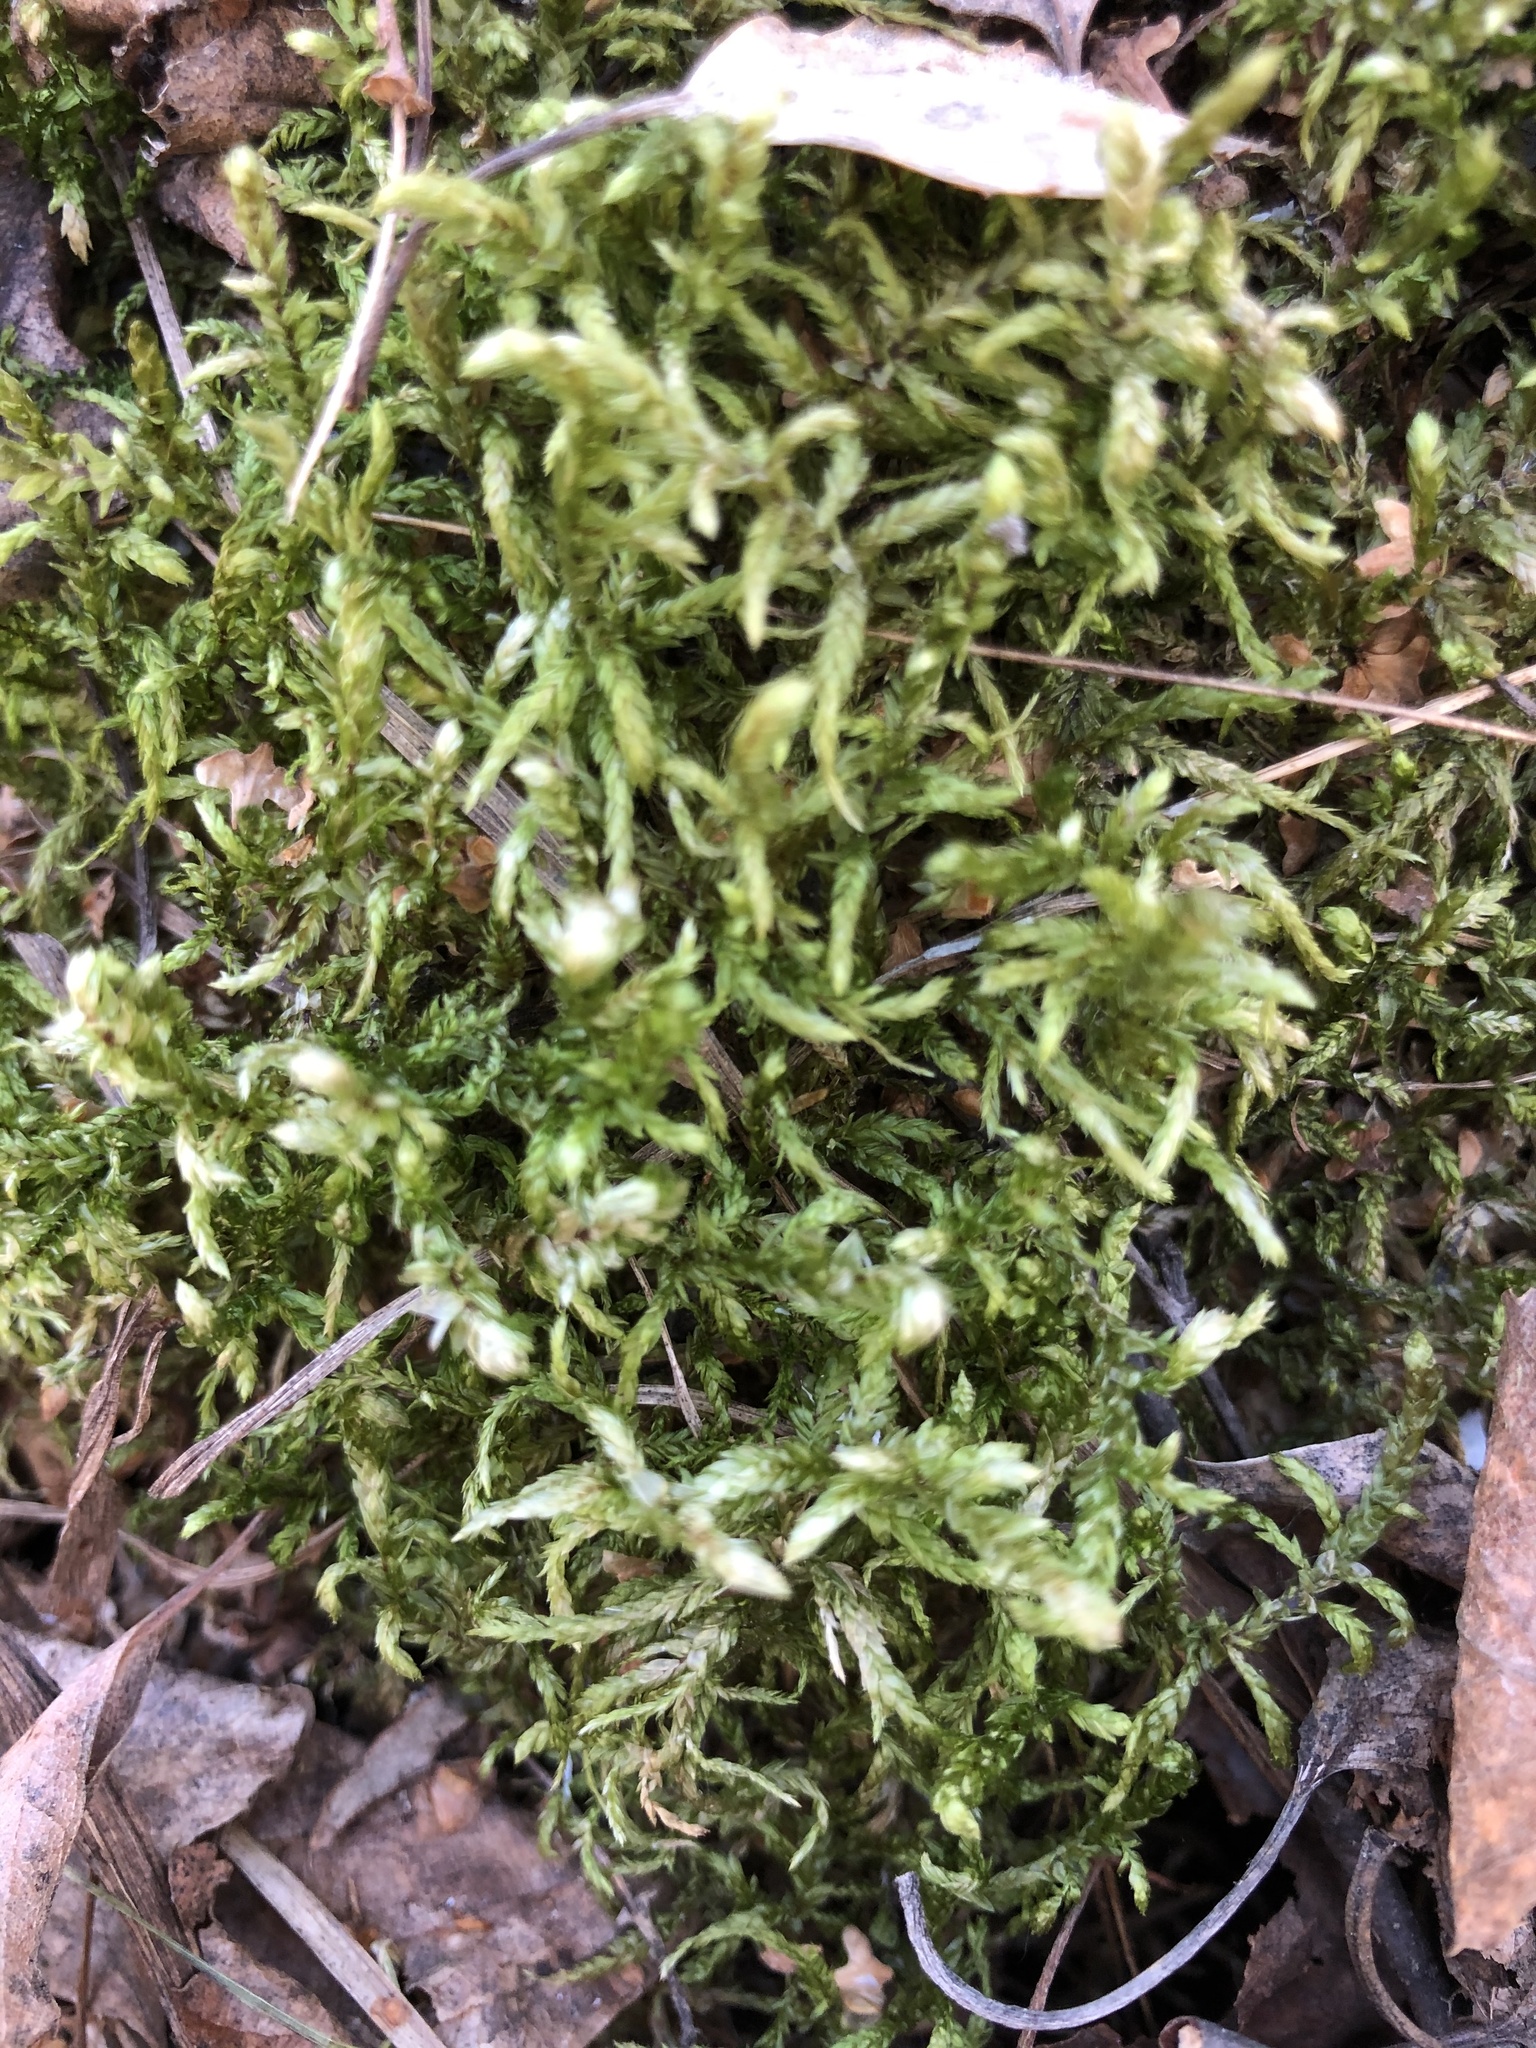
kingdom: Plantae
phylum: Bryophyta
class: Bryopsida
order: Hypnales
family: Hylocomiaceae
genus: Pleurozium
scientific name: Pleurozium schreberi
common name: Red-stemmed feather moss
